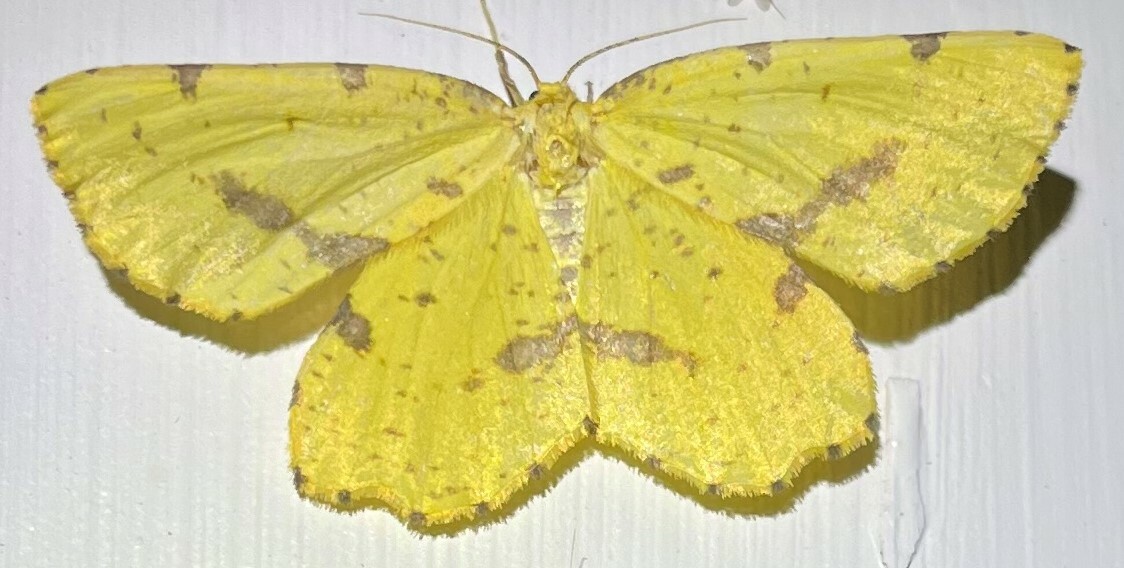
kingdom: Animalia
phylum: Arthropoda
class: Insecta
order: Lepidoptera
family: Geometridae
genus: Xanthotype
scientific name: Xanthotype
